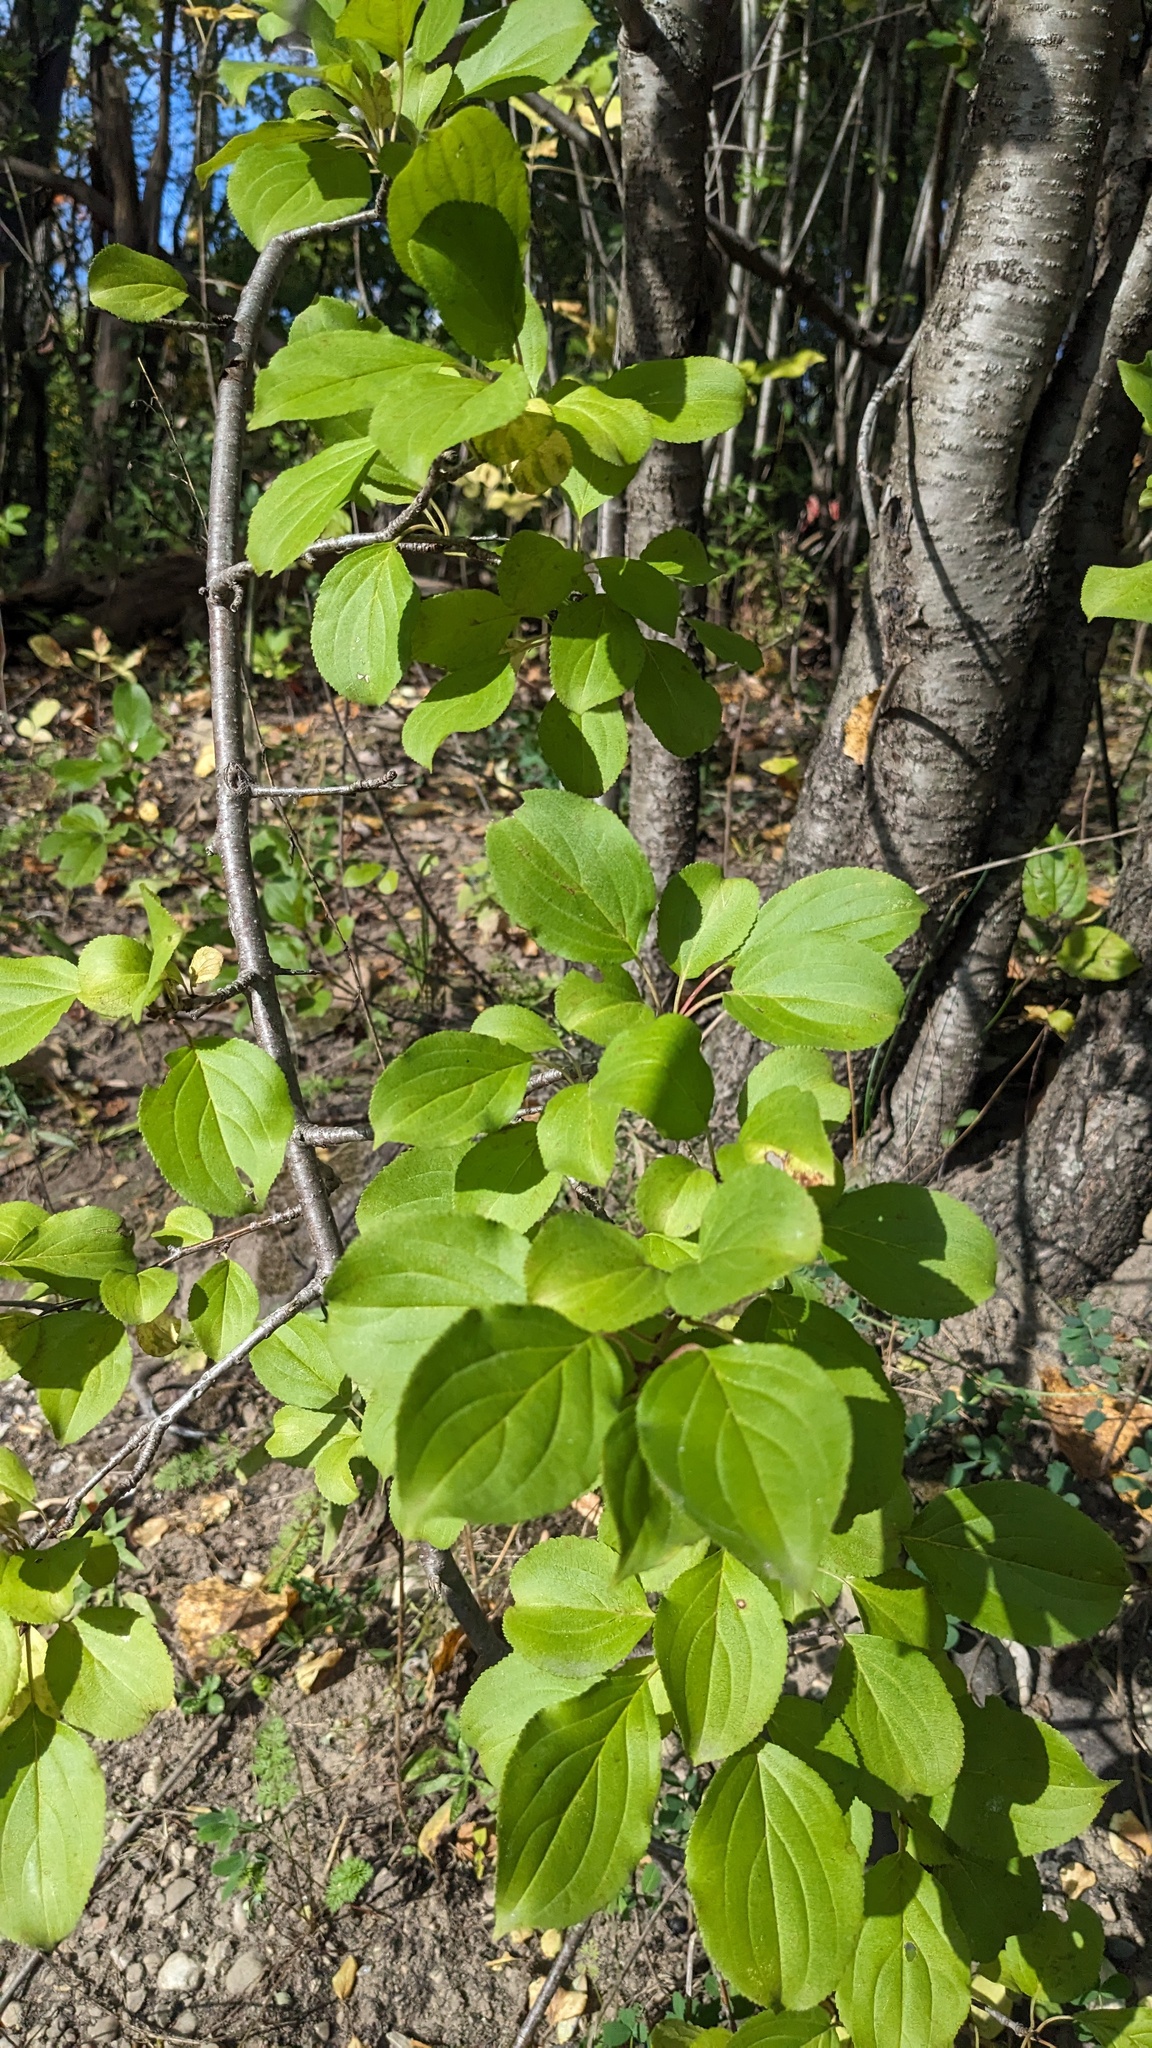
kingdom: Plantae
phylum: Tracheophyta
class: Magnoliopsida
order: Rosales
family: Rhamnaceae
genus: Rhamnus
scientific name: Rhamnus cathartica
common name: Common buckthorn
